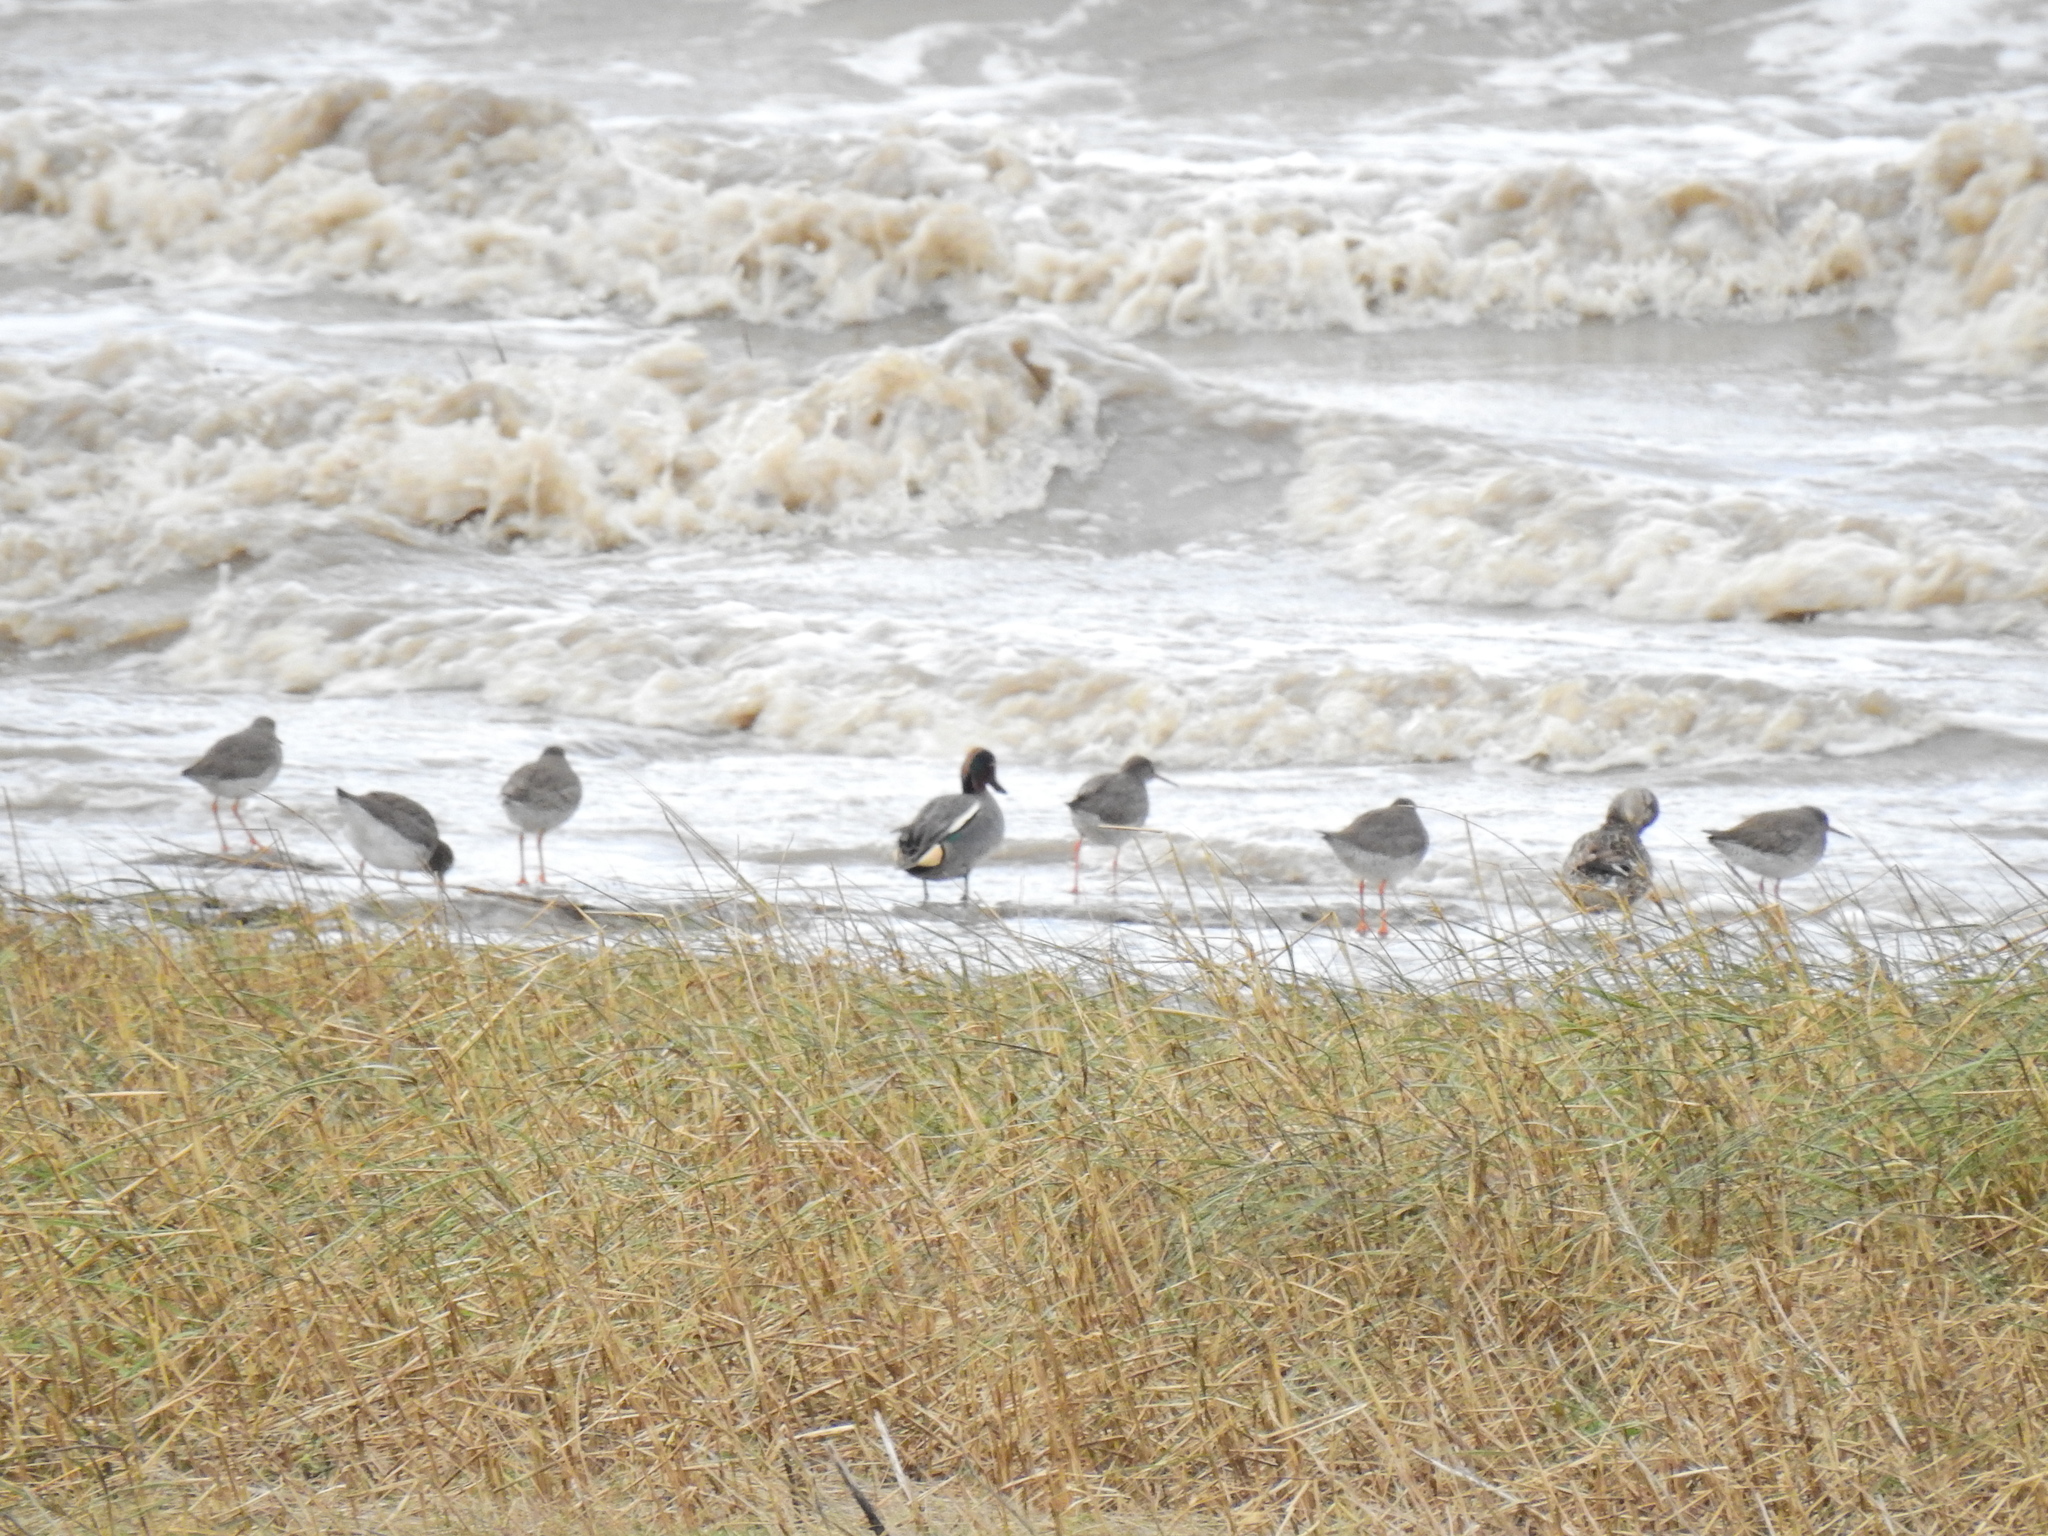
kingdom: Animalia
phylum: Chordata
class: Aves
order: Charadriiformes
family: Scolopacidae
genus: Tringa
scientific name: Tringa totanus
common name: Common redshank
